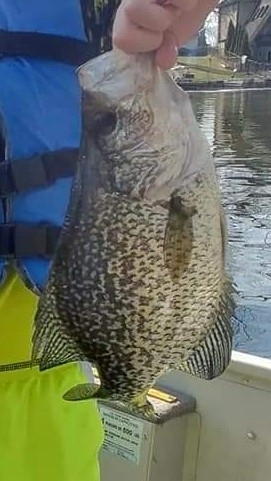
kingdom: Animalia
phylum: Chordata
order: Perciformes
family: Centrarchidae
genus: Pomoxis
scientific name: Pomoxis nigromaculatus
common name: Black crappie
